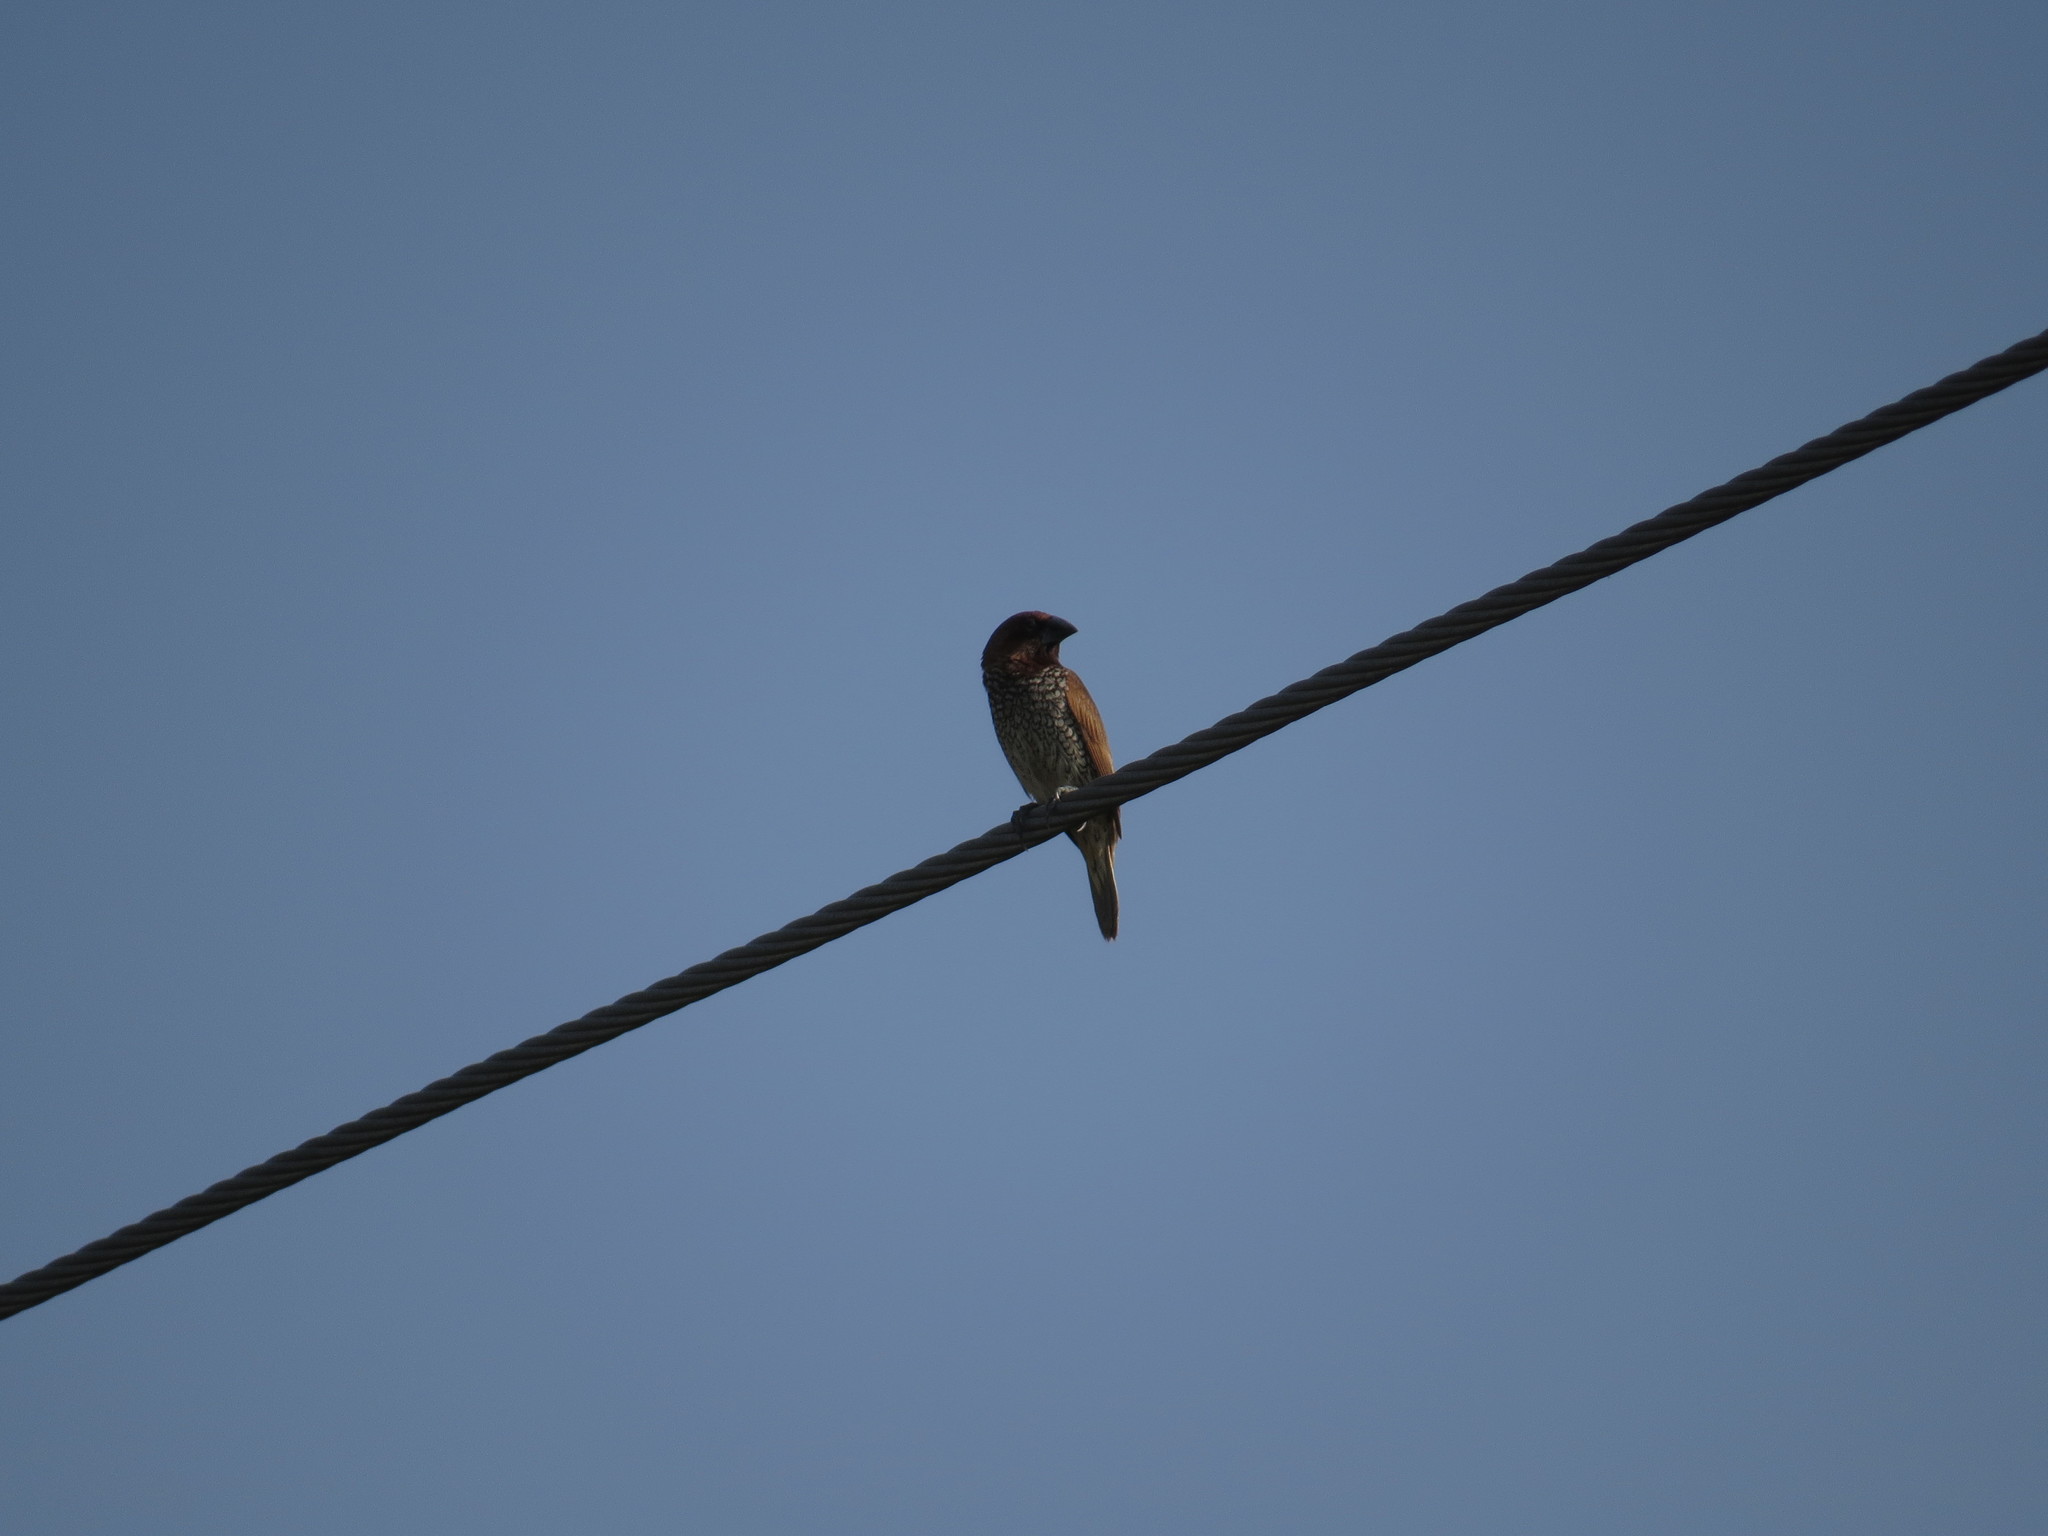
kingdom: Animalia
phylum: Chordata
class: Aves
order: Passeriformes
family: Estrildidae
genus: Lonchura
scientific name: Lonchura punctulata
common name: Scaly-breasted munia
